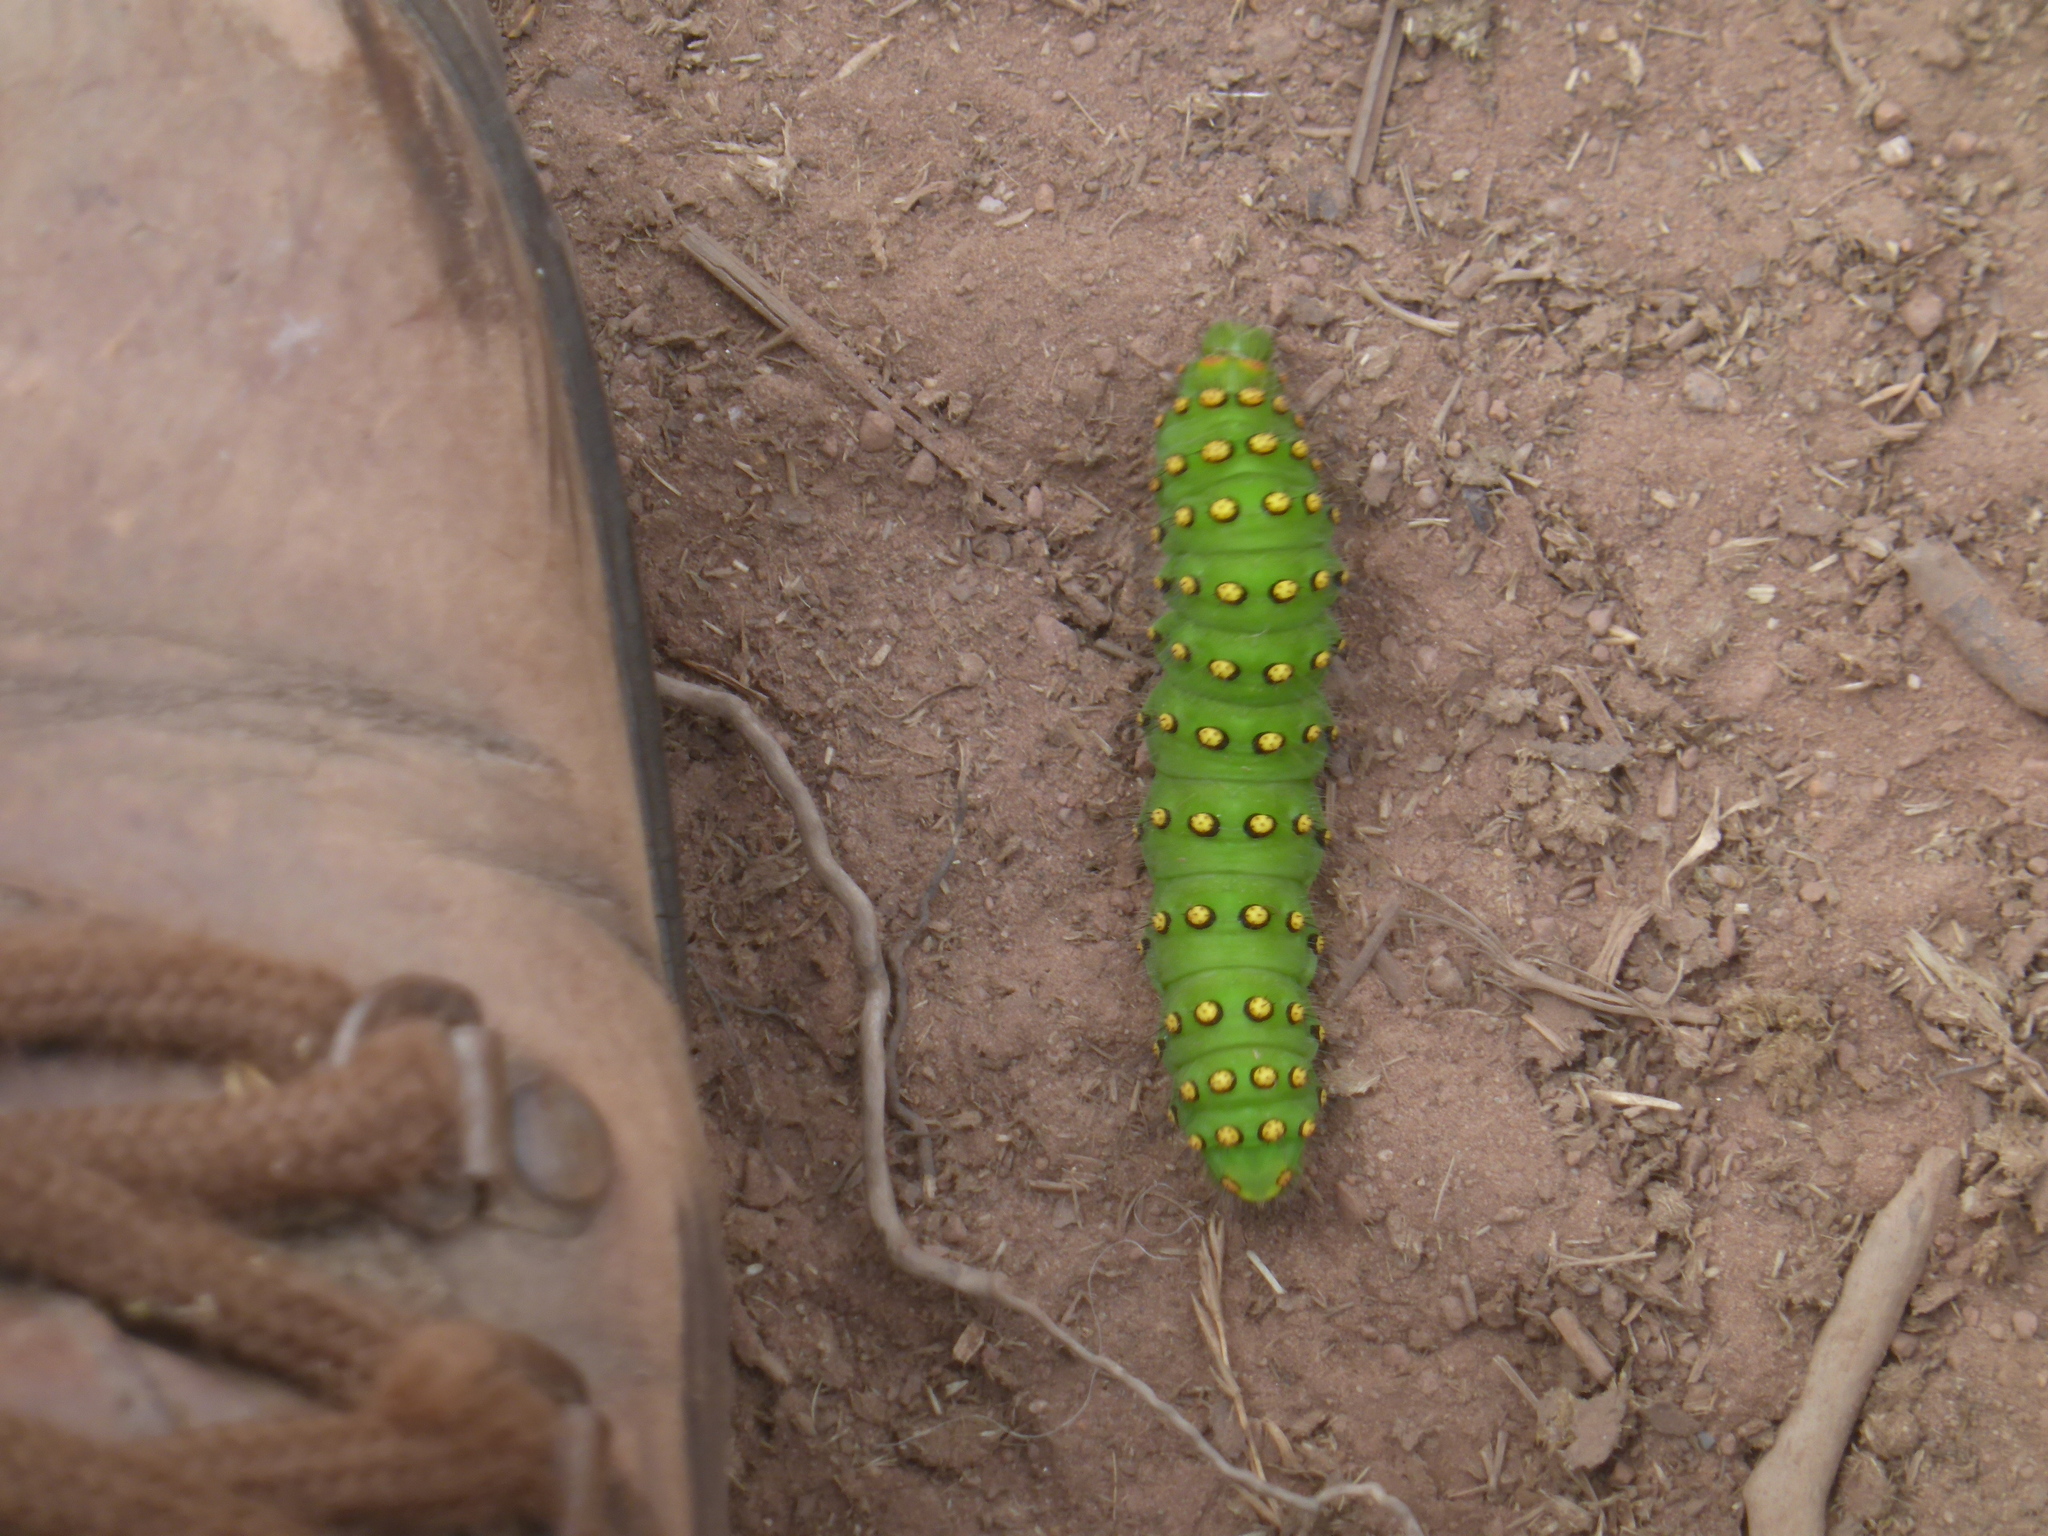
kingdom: Animalia
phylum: Arthropoda
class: Insecta
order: Lepidoptera
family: Saturniidae
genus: Saturnia
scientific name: Saturnia pavonia
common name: Emperor moth
